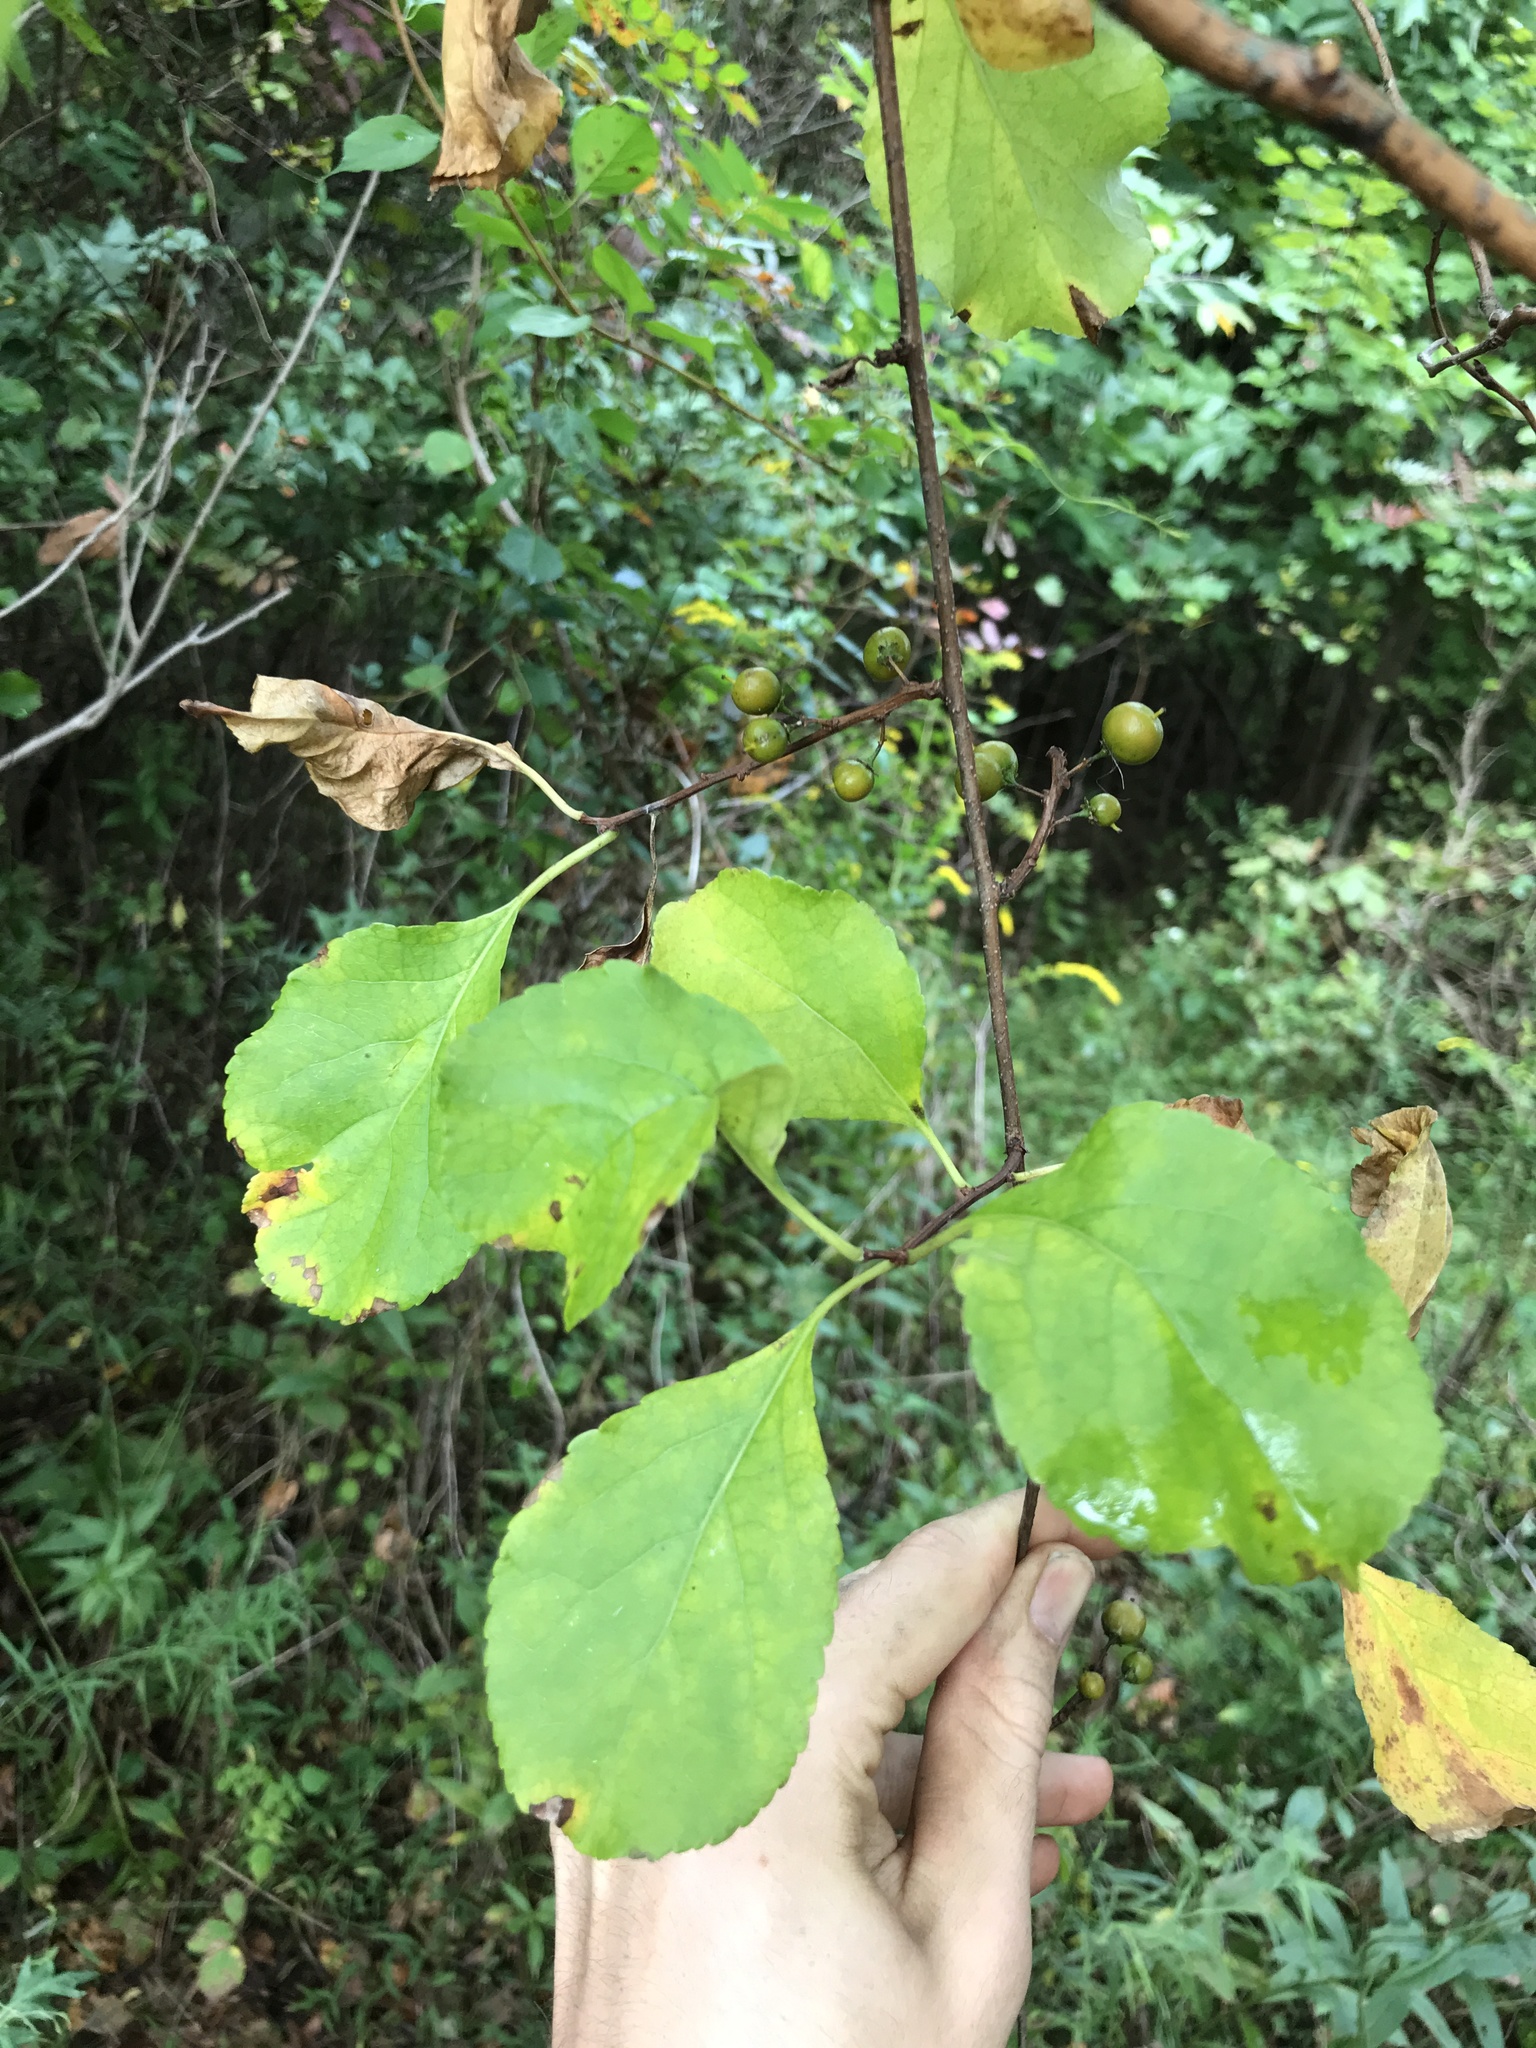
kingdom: Plantae
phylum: Tracheophyta
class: Magnoliopsida
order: Celastrales
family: Celastraceae
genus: Celastrus
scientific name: Celastrus orbiculatus
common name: Oriental bittersweet
